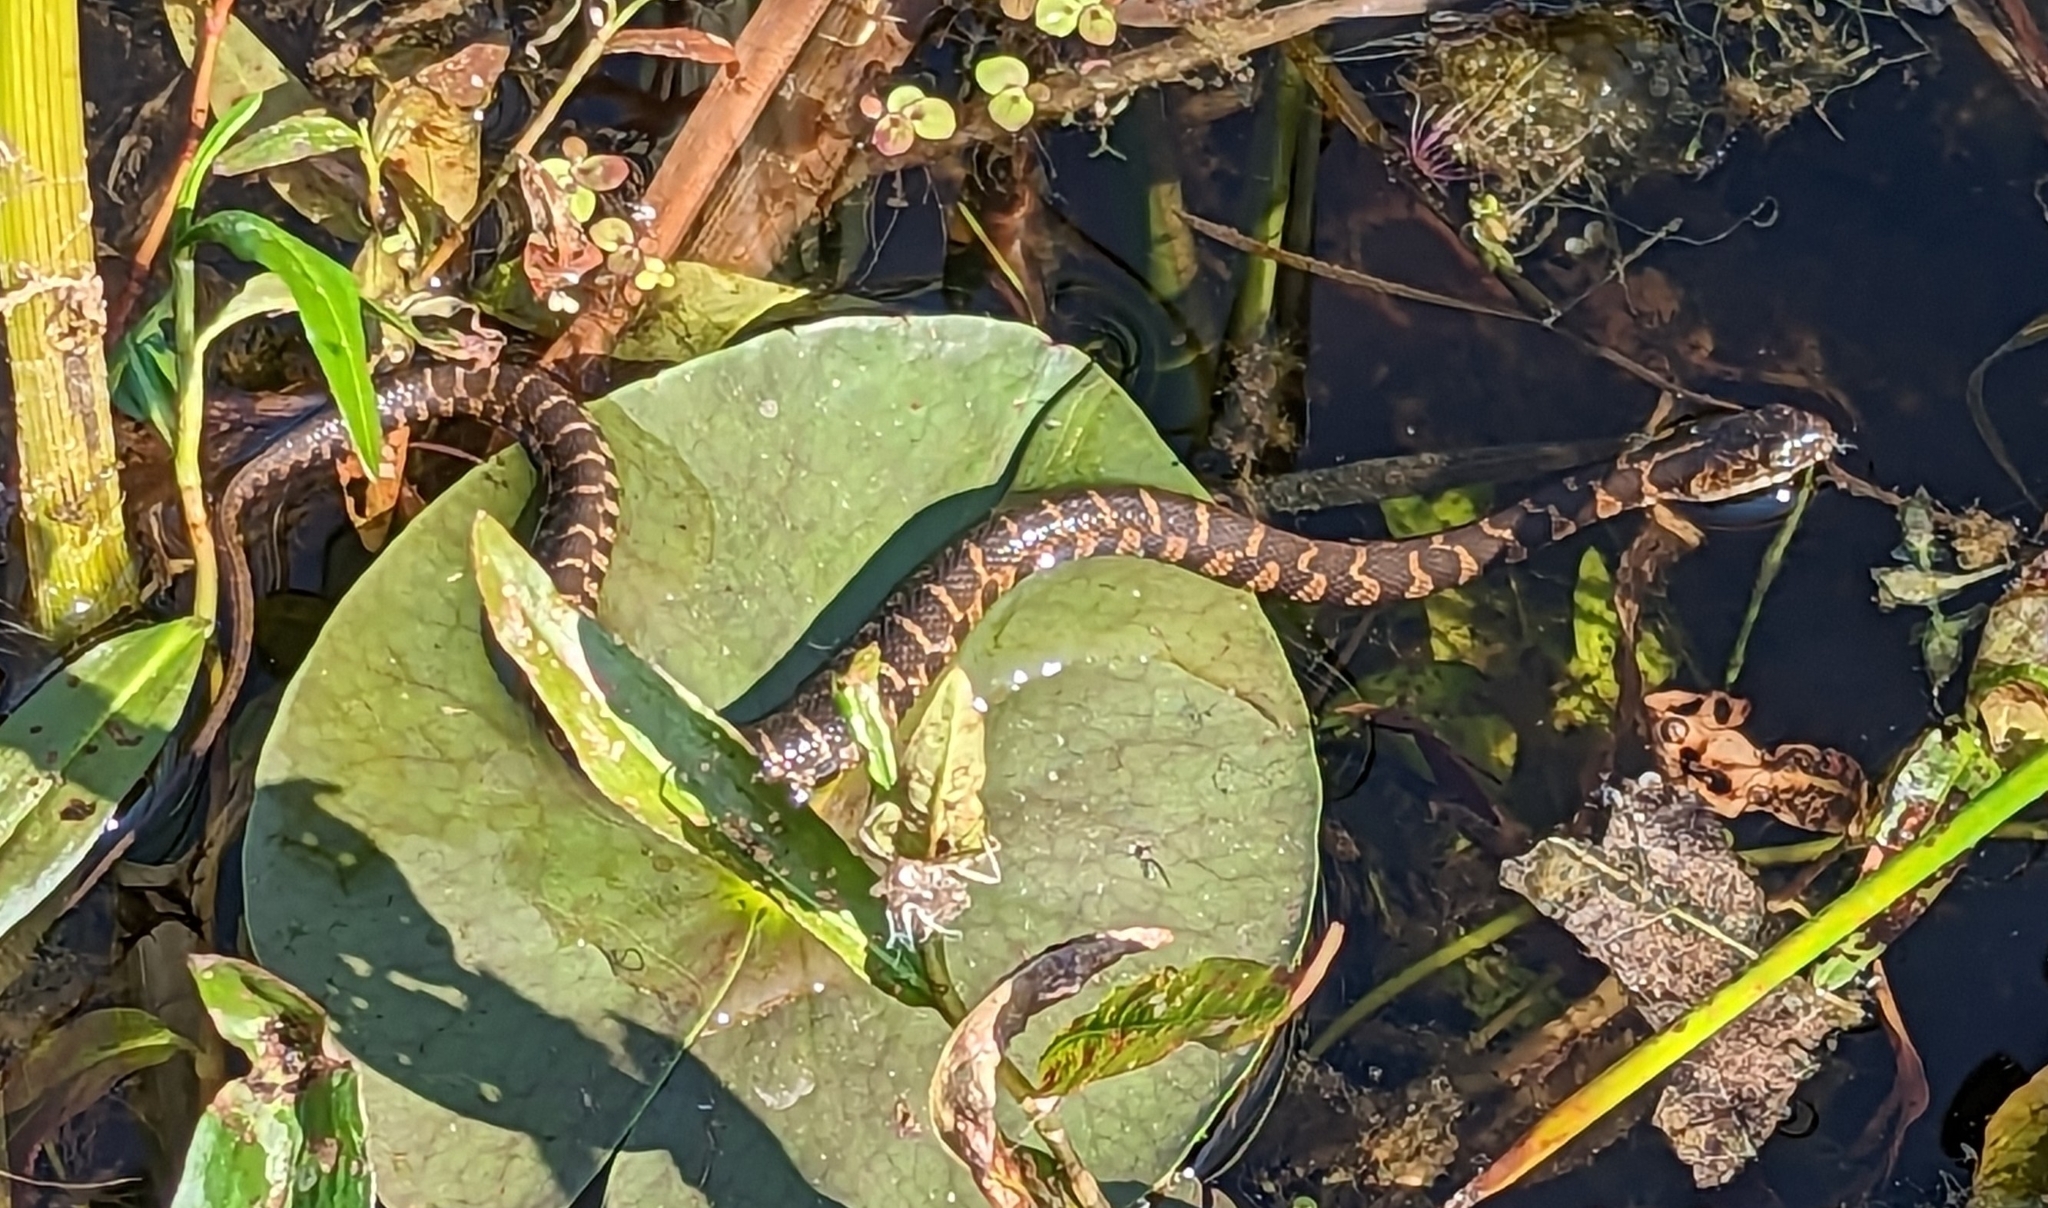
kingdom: Animalia
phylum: Chordata
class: Squamata
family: Colubridae
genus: Nerodia
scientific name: Nerodia sipedon
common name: Northern water snake
